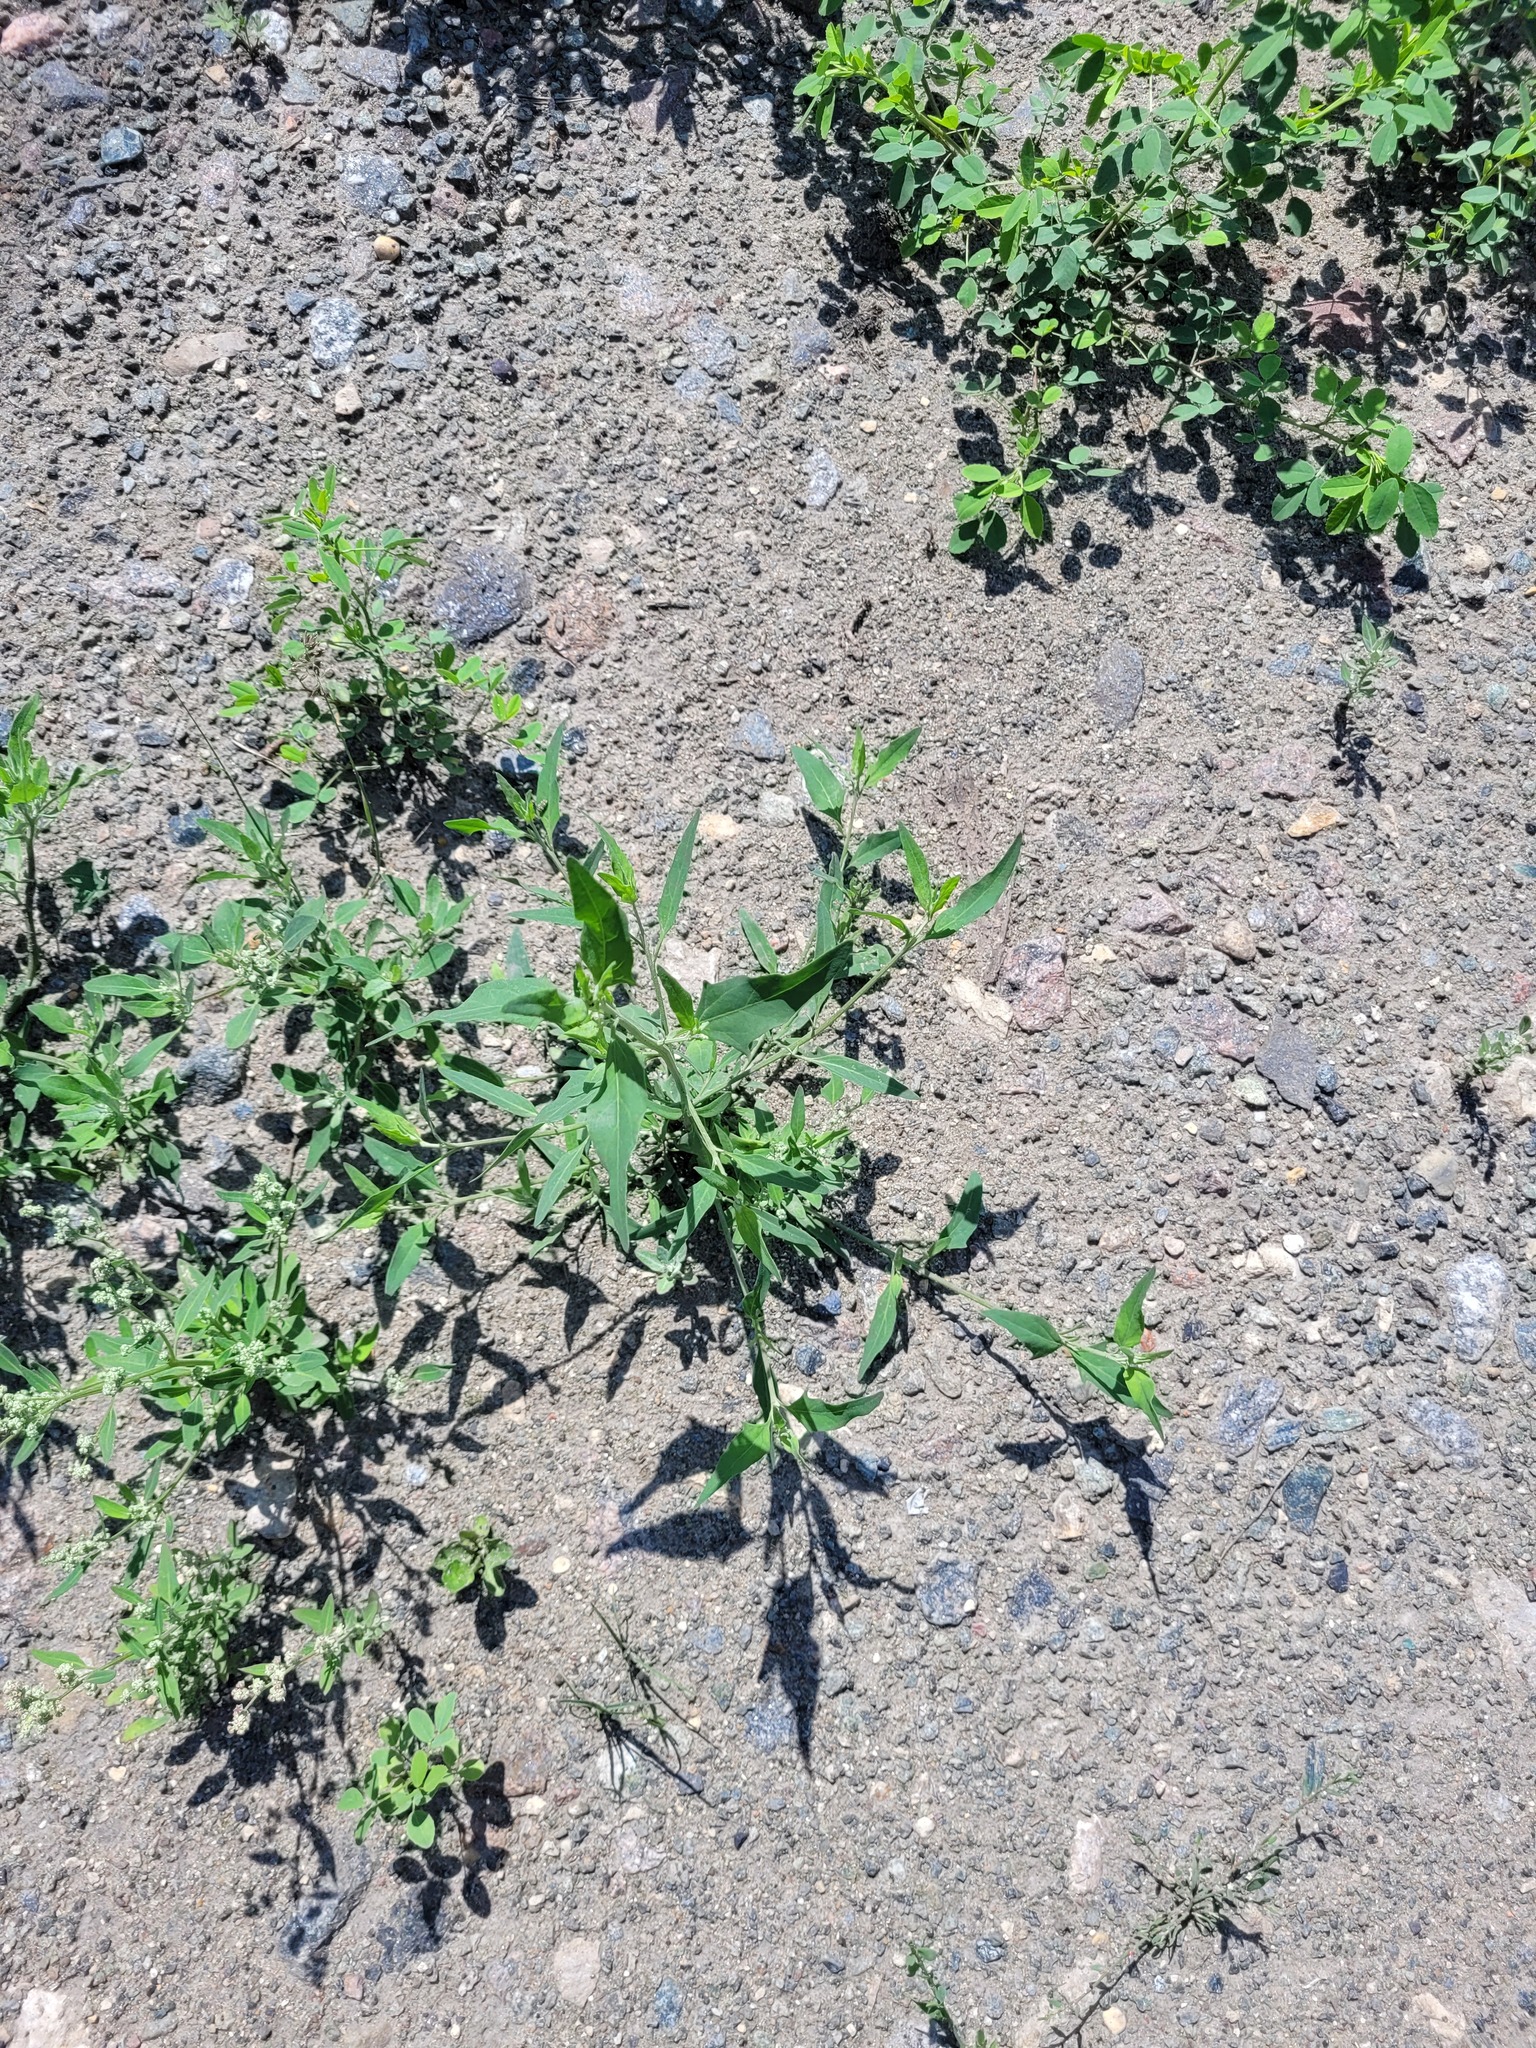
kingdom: Plantae
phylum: Tracheophyta
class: Magnoliopsida
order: Caryophyllales
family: Amaranthaceae
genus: Atriplex
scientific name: Atriplex patula
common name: Common orache
